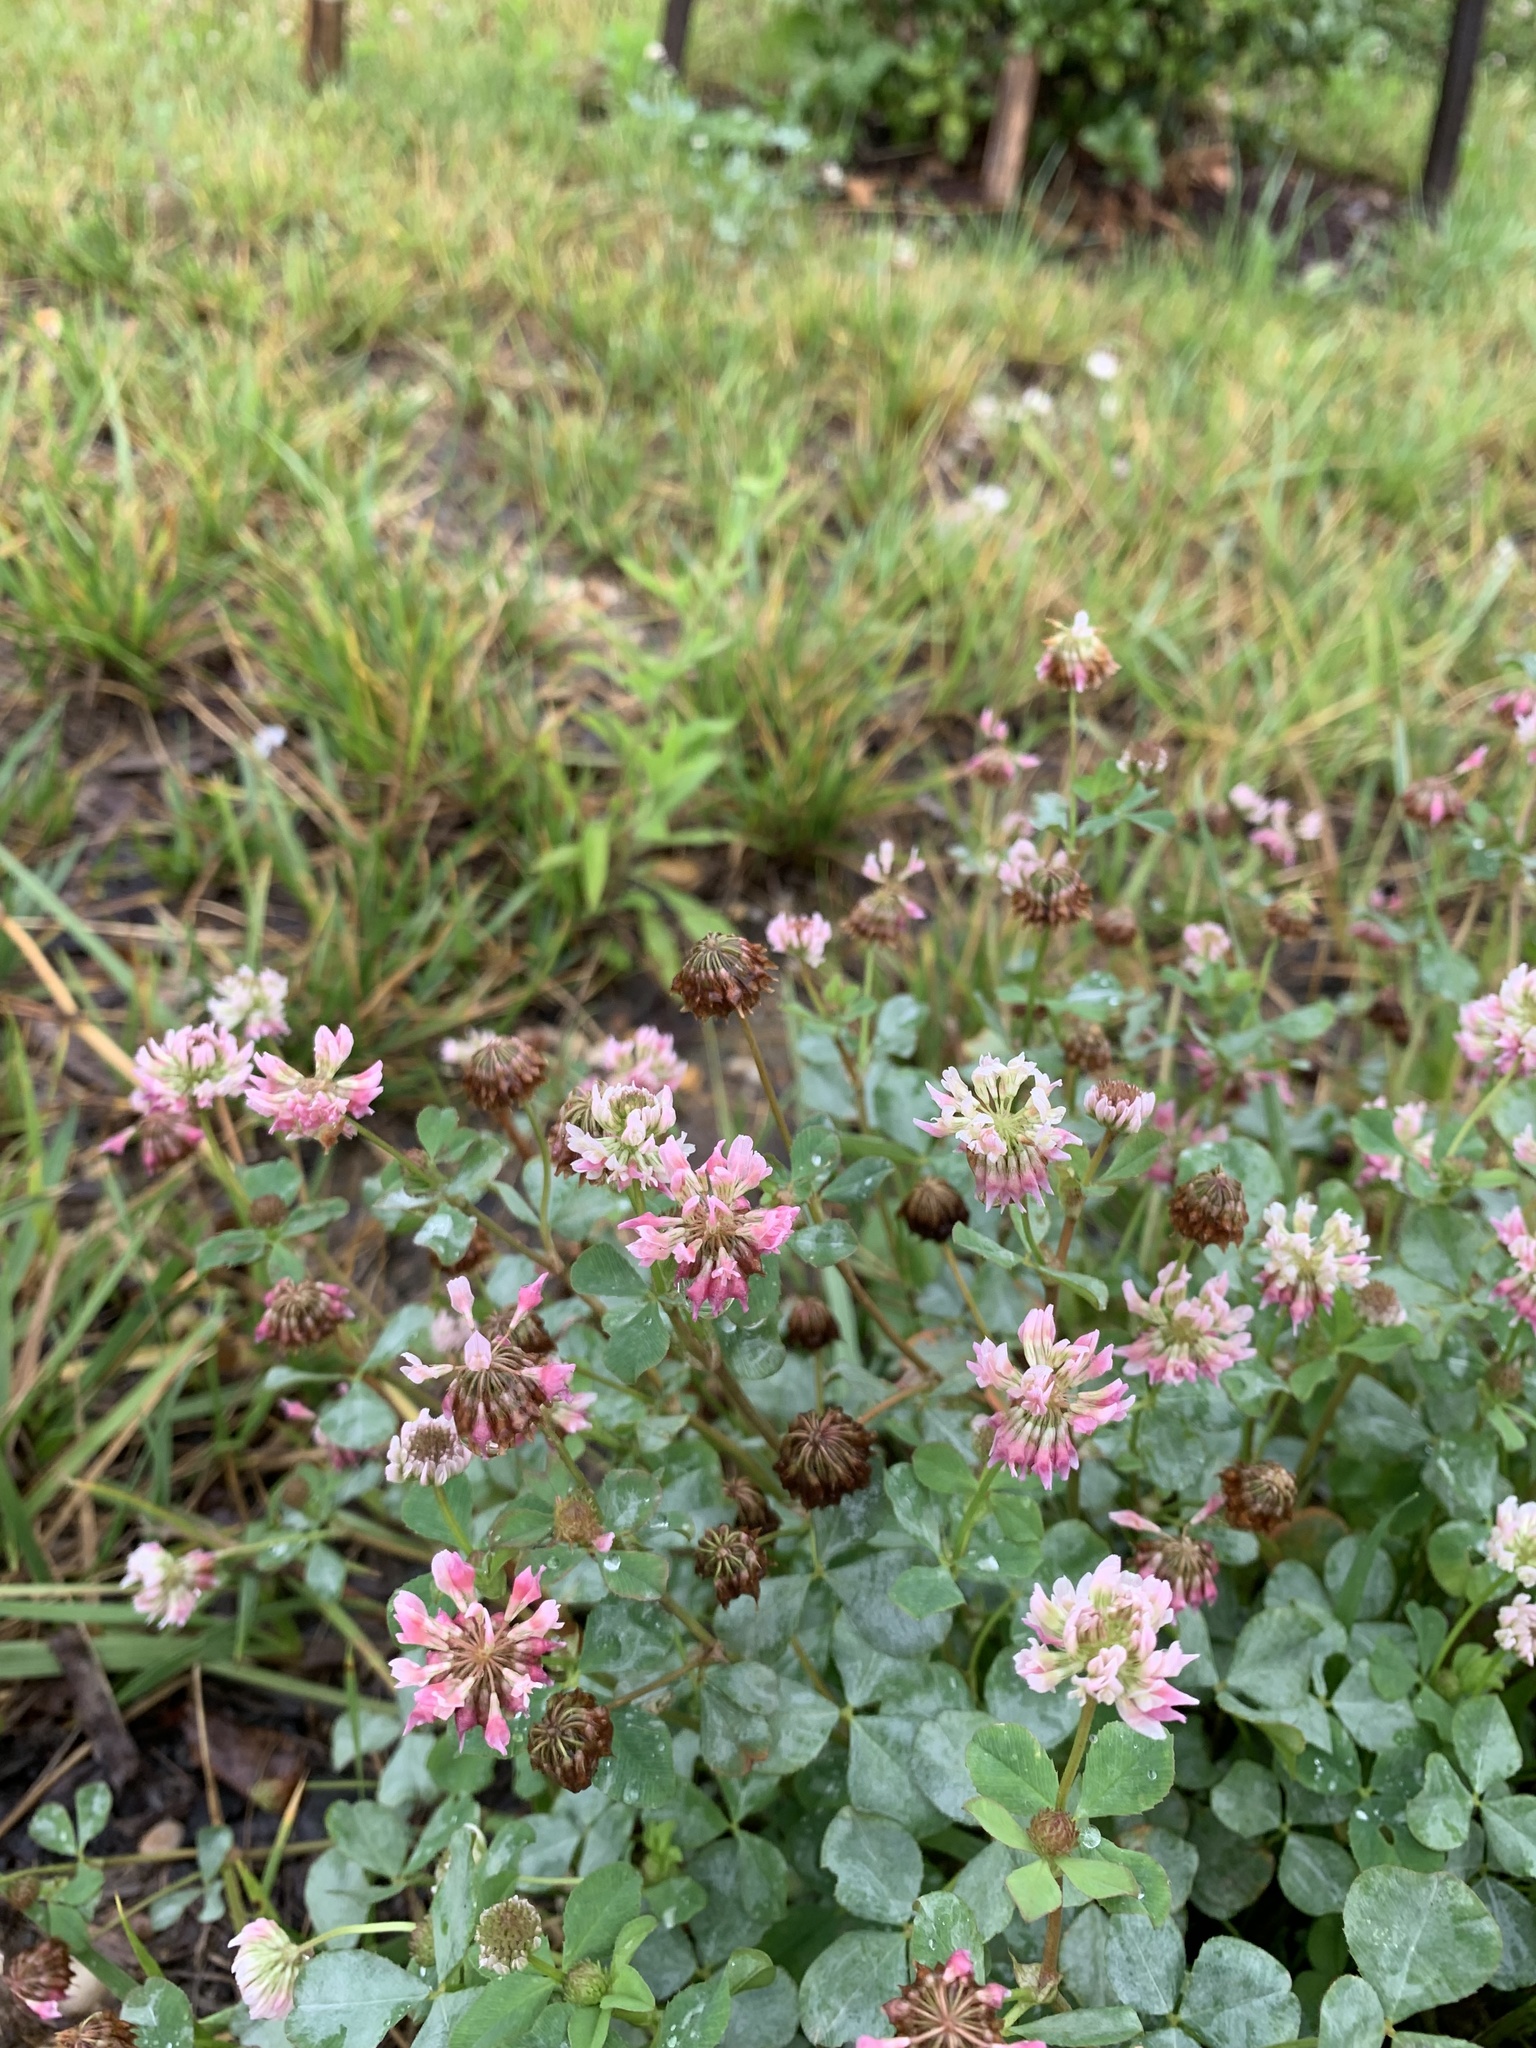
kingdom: Plantae
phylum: Tracheophyta
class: Magnoliopsida
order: Fabales
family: Fabaceae
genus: Trifolium
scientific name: Trifolium hybridum
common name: Alsike clover
